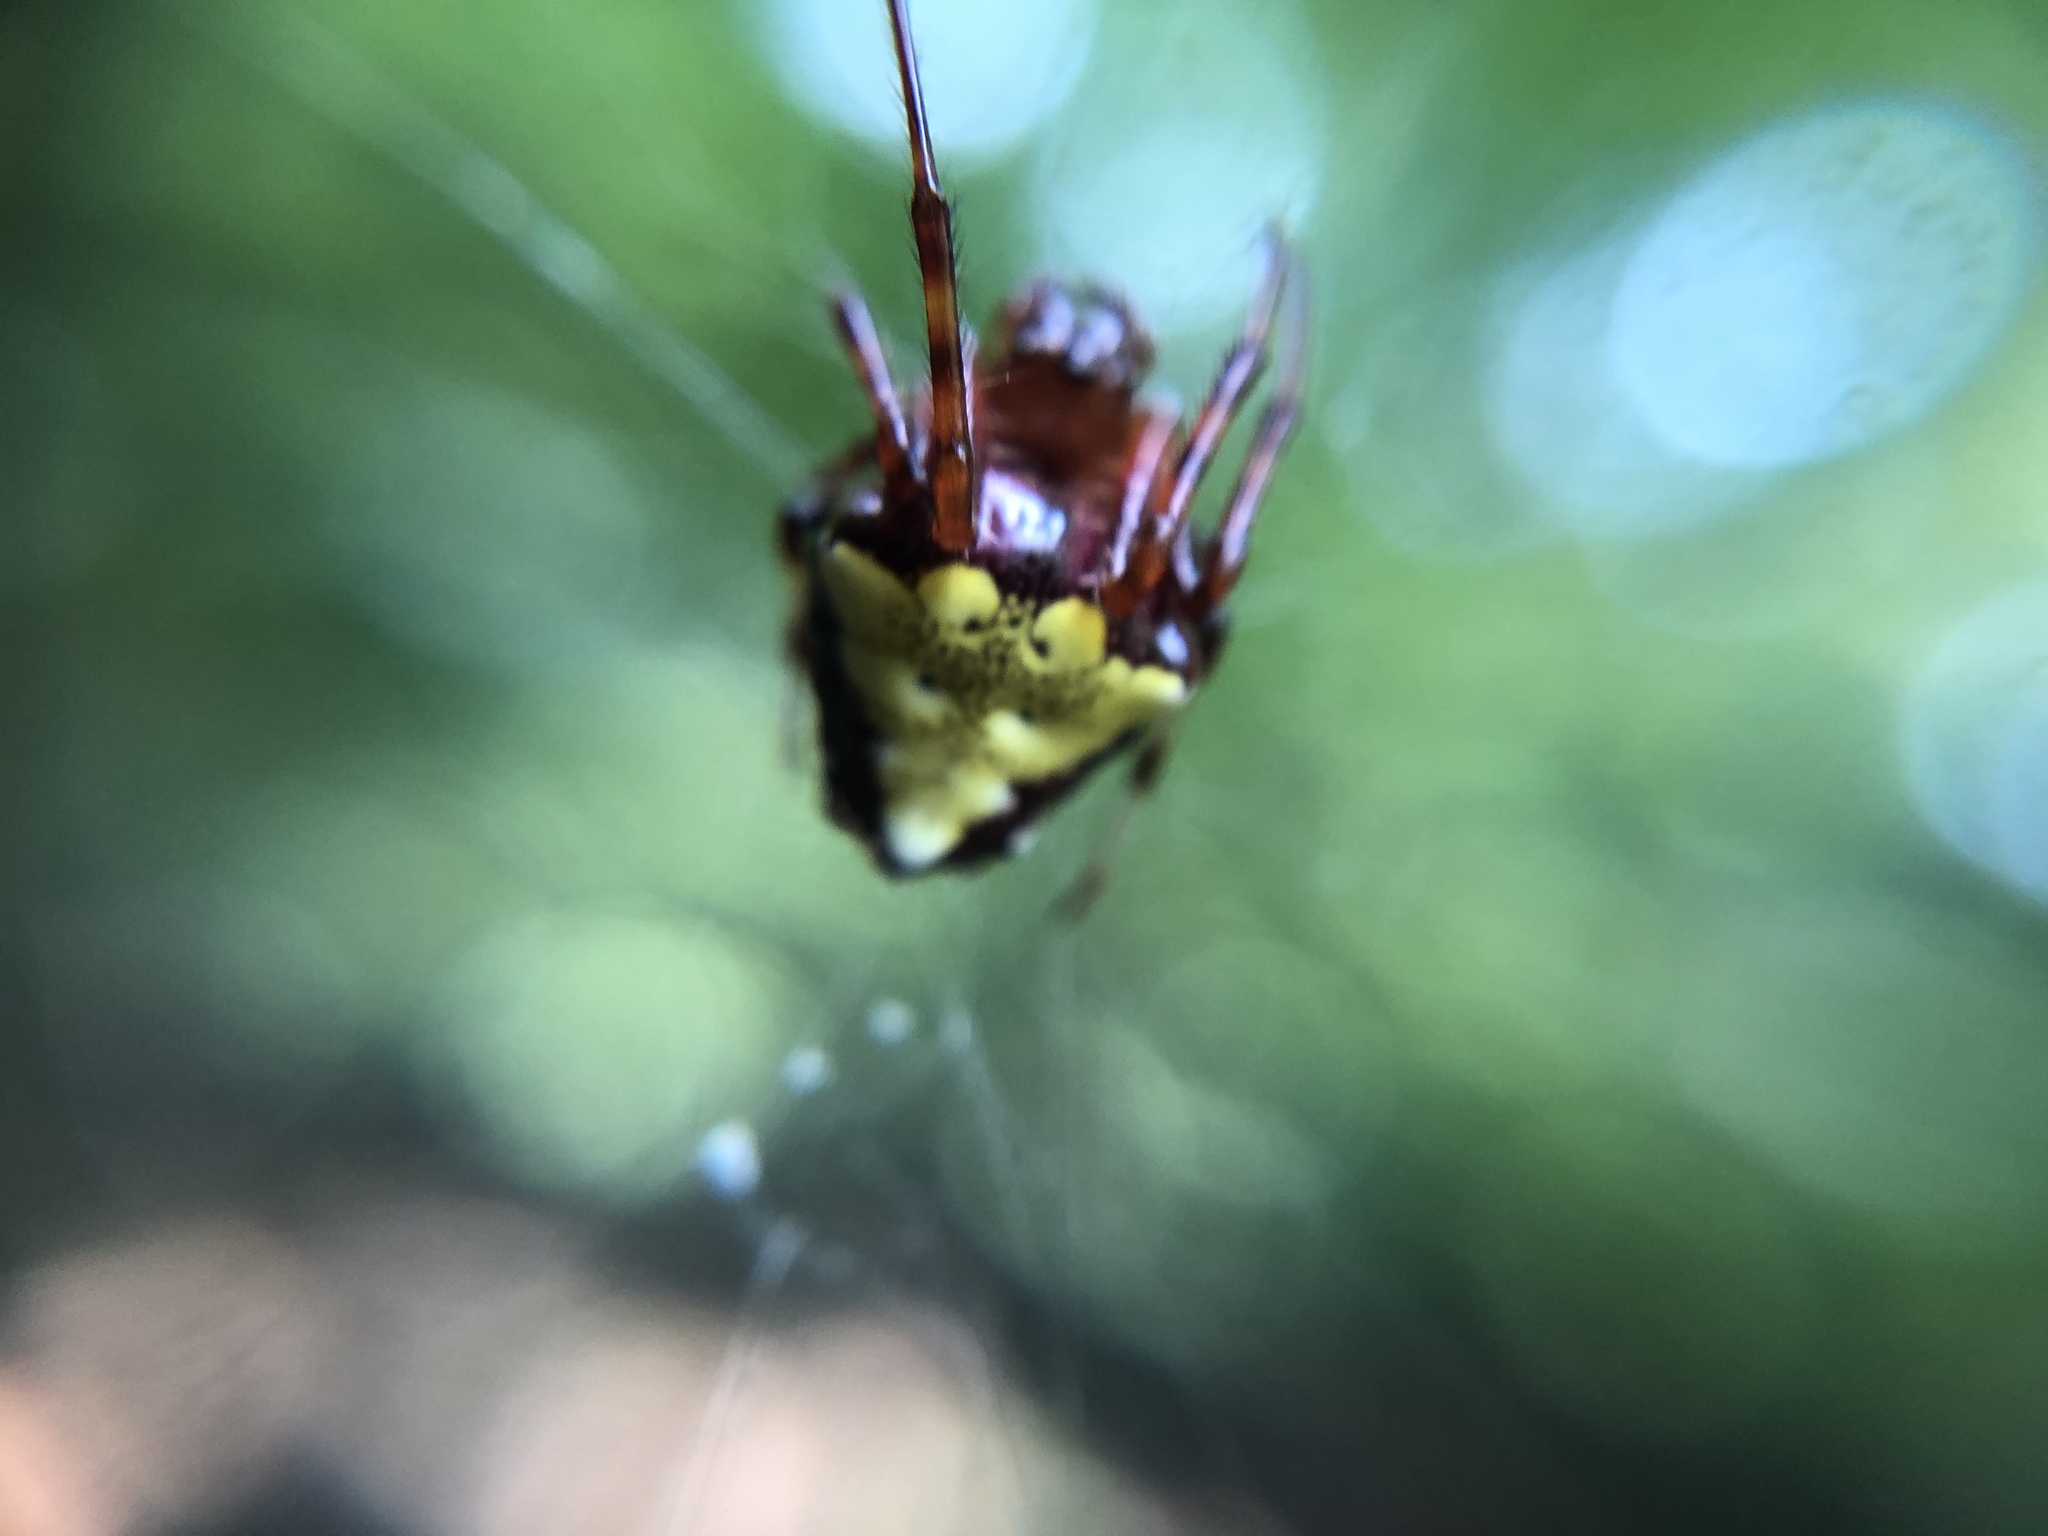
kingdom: Animalia
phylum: Arthropoda
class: Arachnida
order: Araneae
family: Araneidae
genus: Verrucosa
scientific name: Verrucosa arenata
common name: Orb weavers
